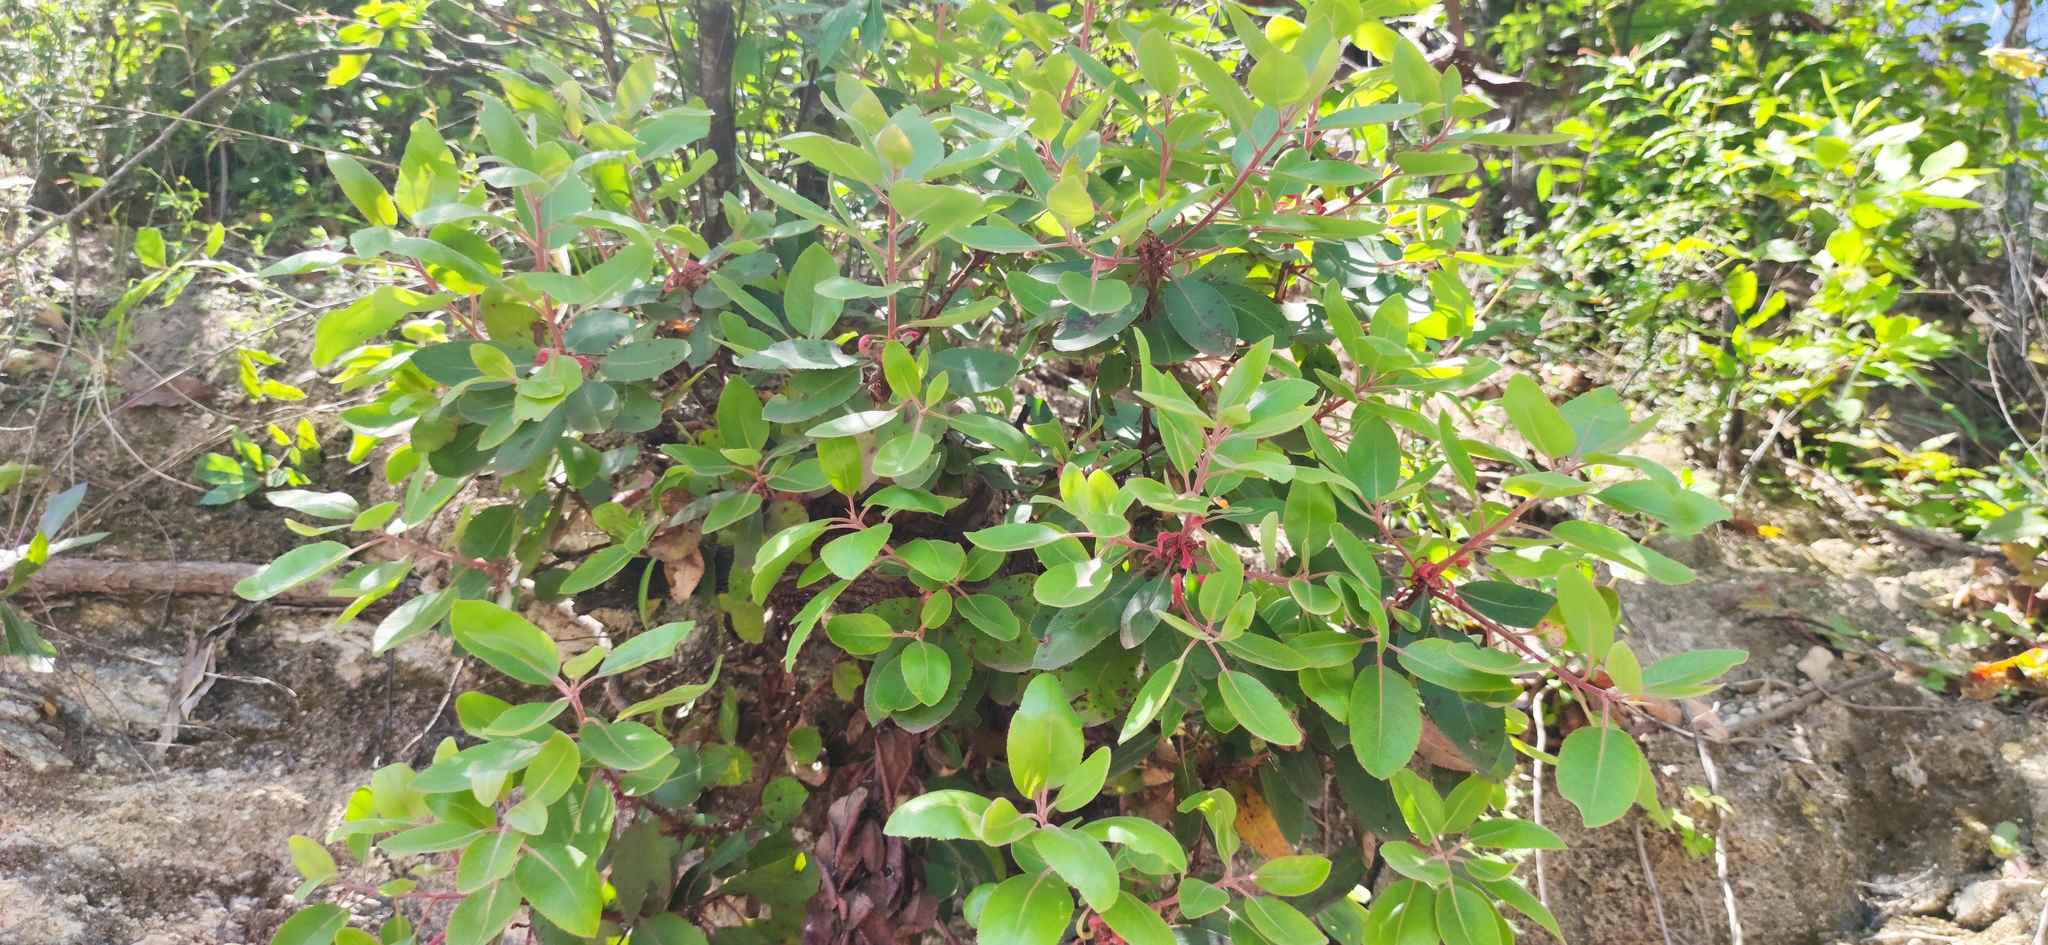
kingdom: Plantae
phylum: Tracheophyta
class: Magnoliopsida
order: Ericales
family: Ericaceae
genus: Arbutus
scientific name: Arbutus xalapensis
